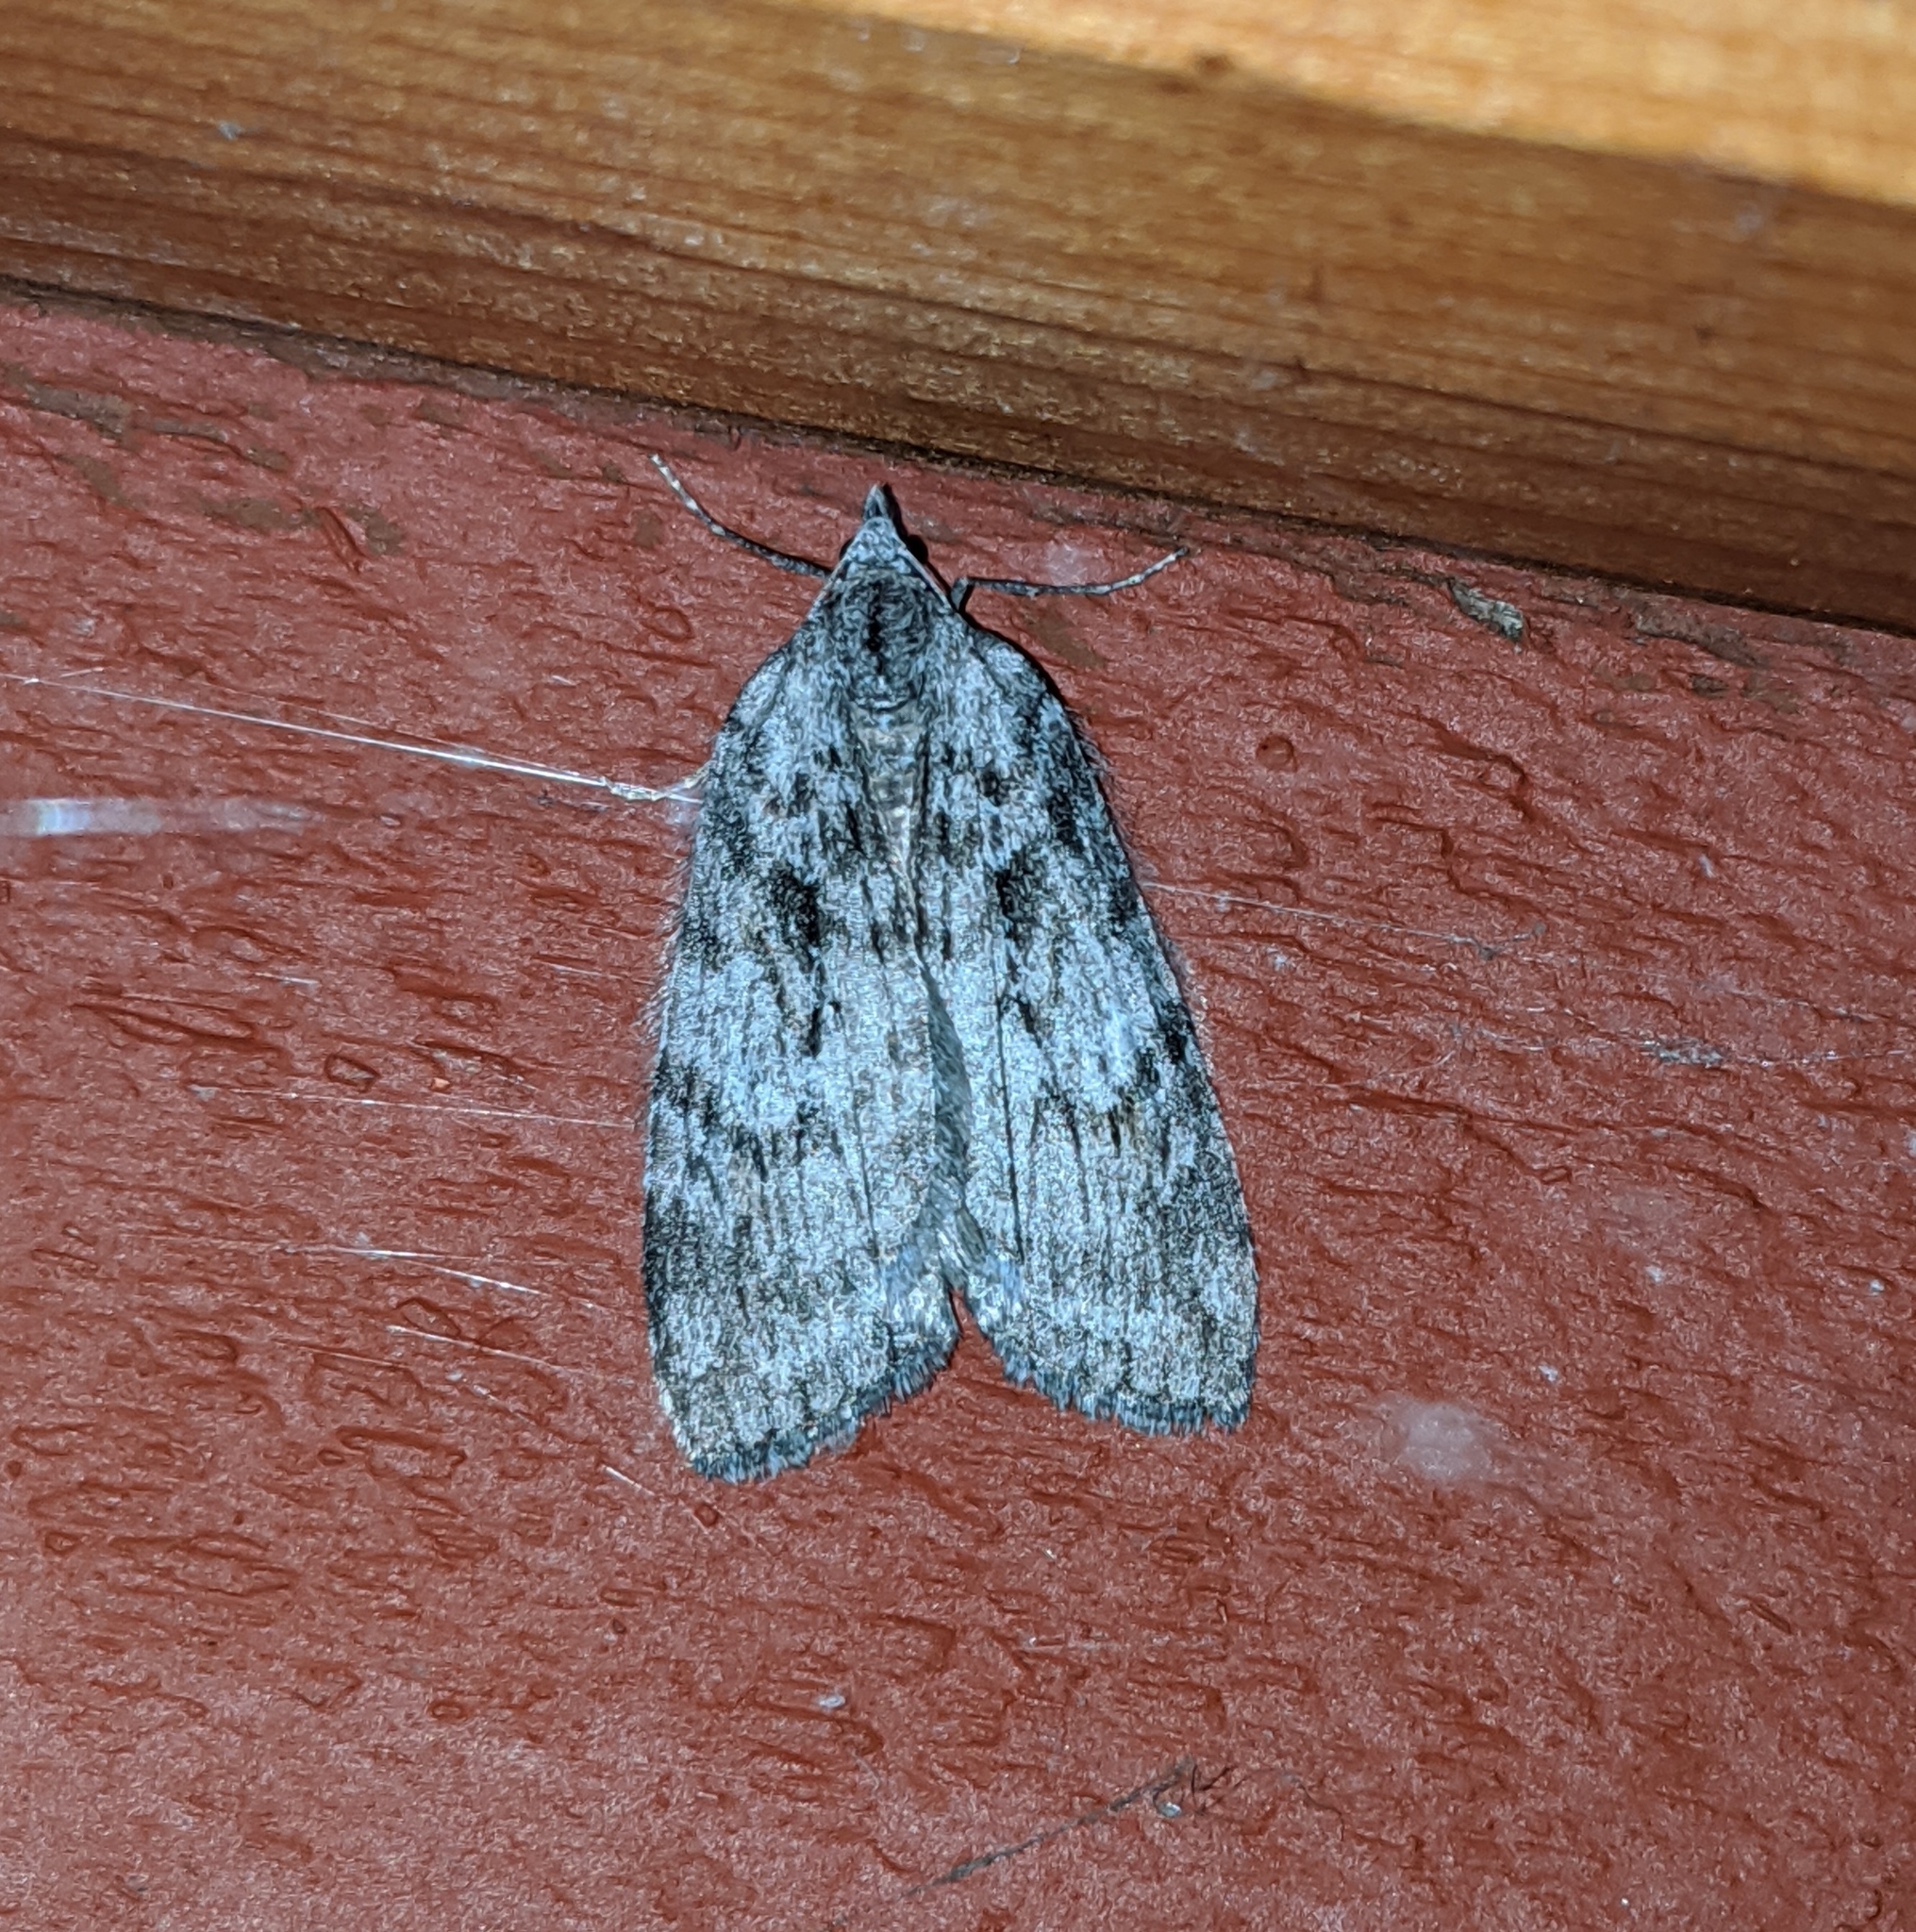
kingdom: Animalia
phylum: Arthropoda
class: Insecta
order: Lepidoptera
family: Geometridae
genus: Hydriomena
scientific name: Hydriomena manzanita
